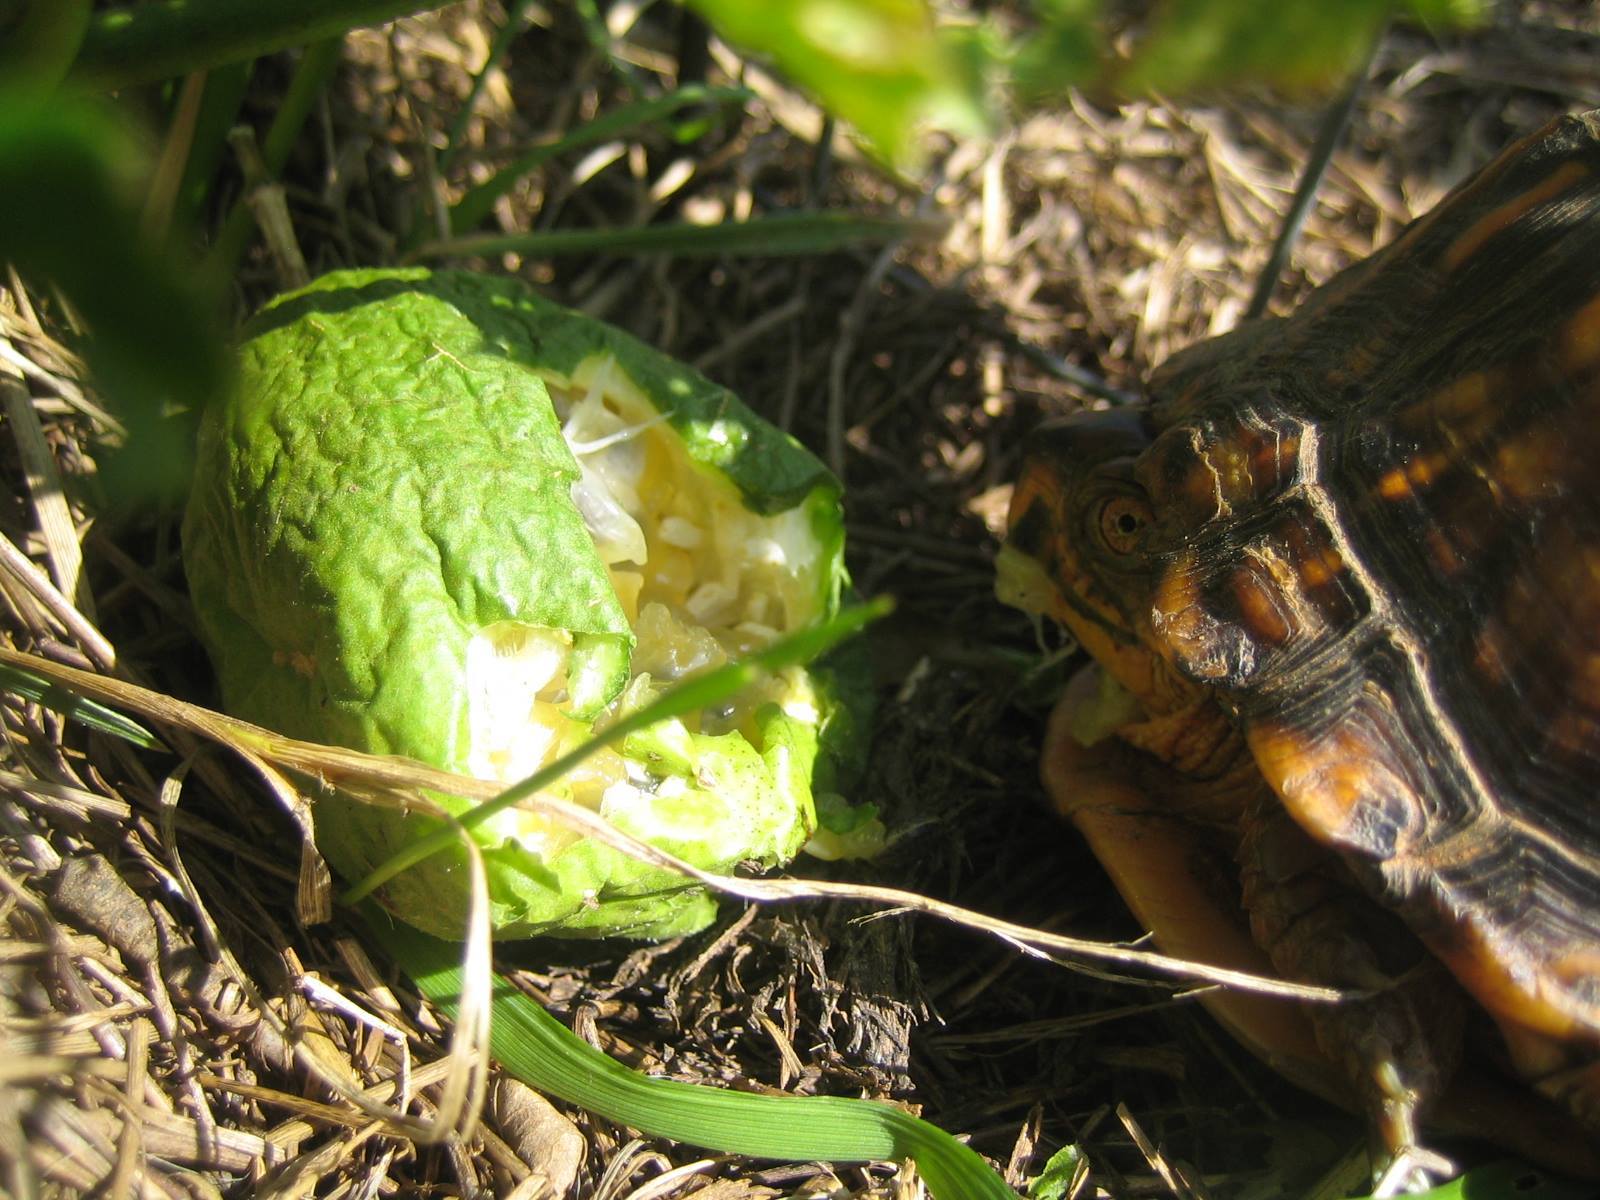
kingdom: Animalia
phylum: Chordata
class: Testudines
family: Emydidae
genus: Terrapene
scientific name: Terrapene carolina
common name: Common box turtle
